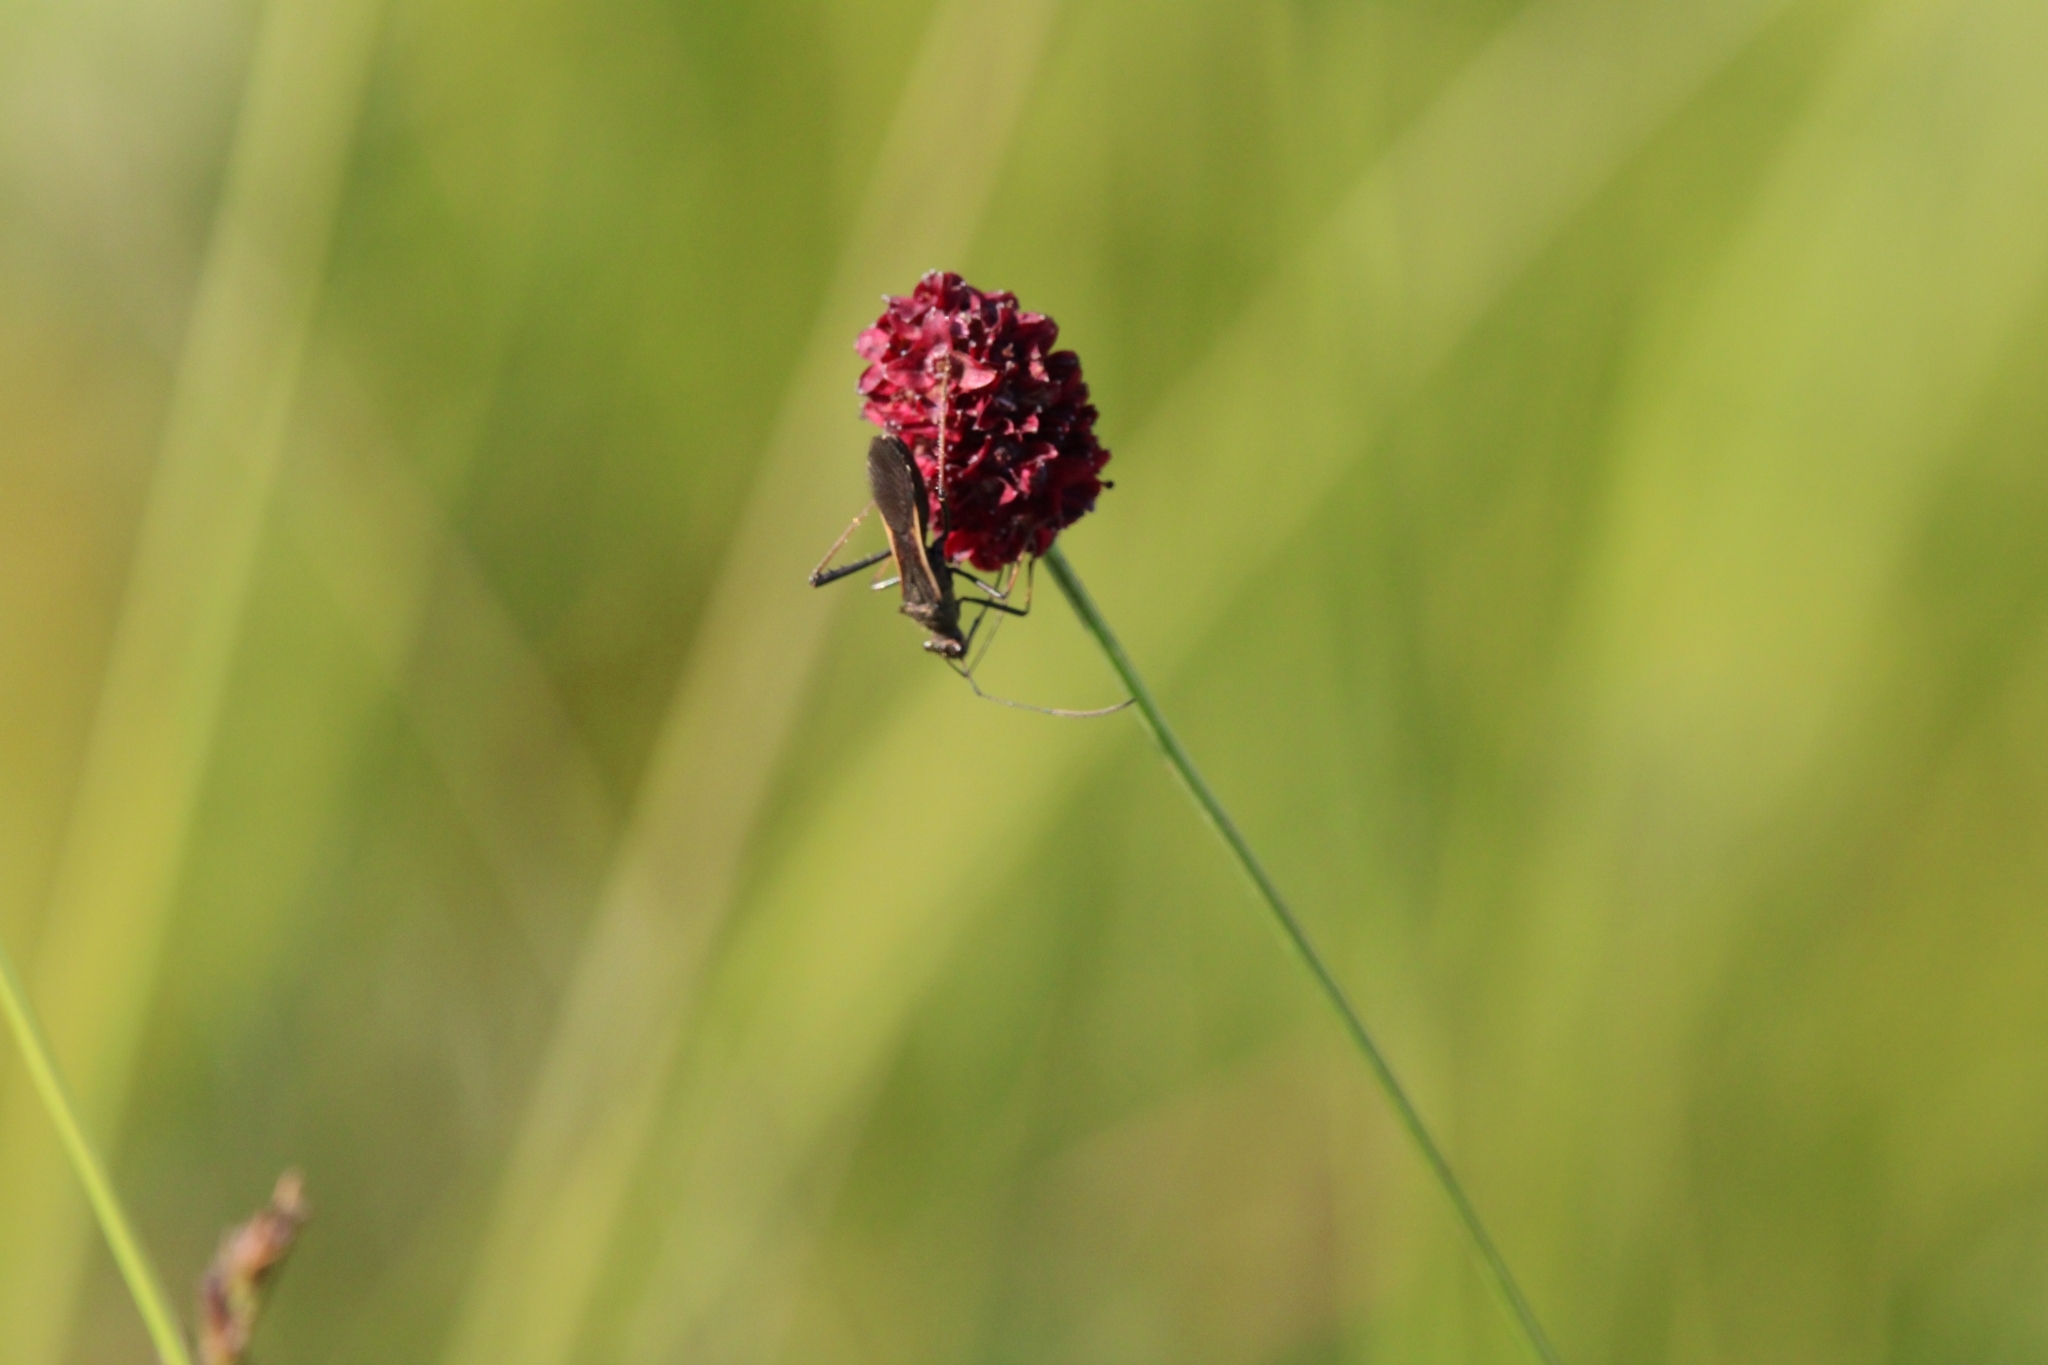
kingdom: Plantae
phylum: Tracheophyta
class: Magnoliopsida
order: Rosales
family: Rosaceae
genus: Sanguisorba
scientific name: Sanguisorba officinalis
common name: Great burnet
